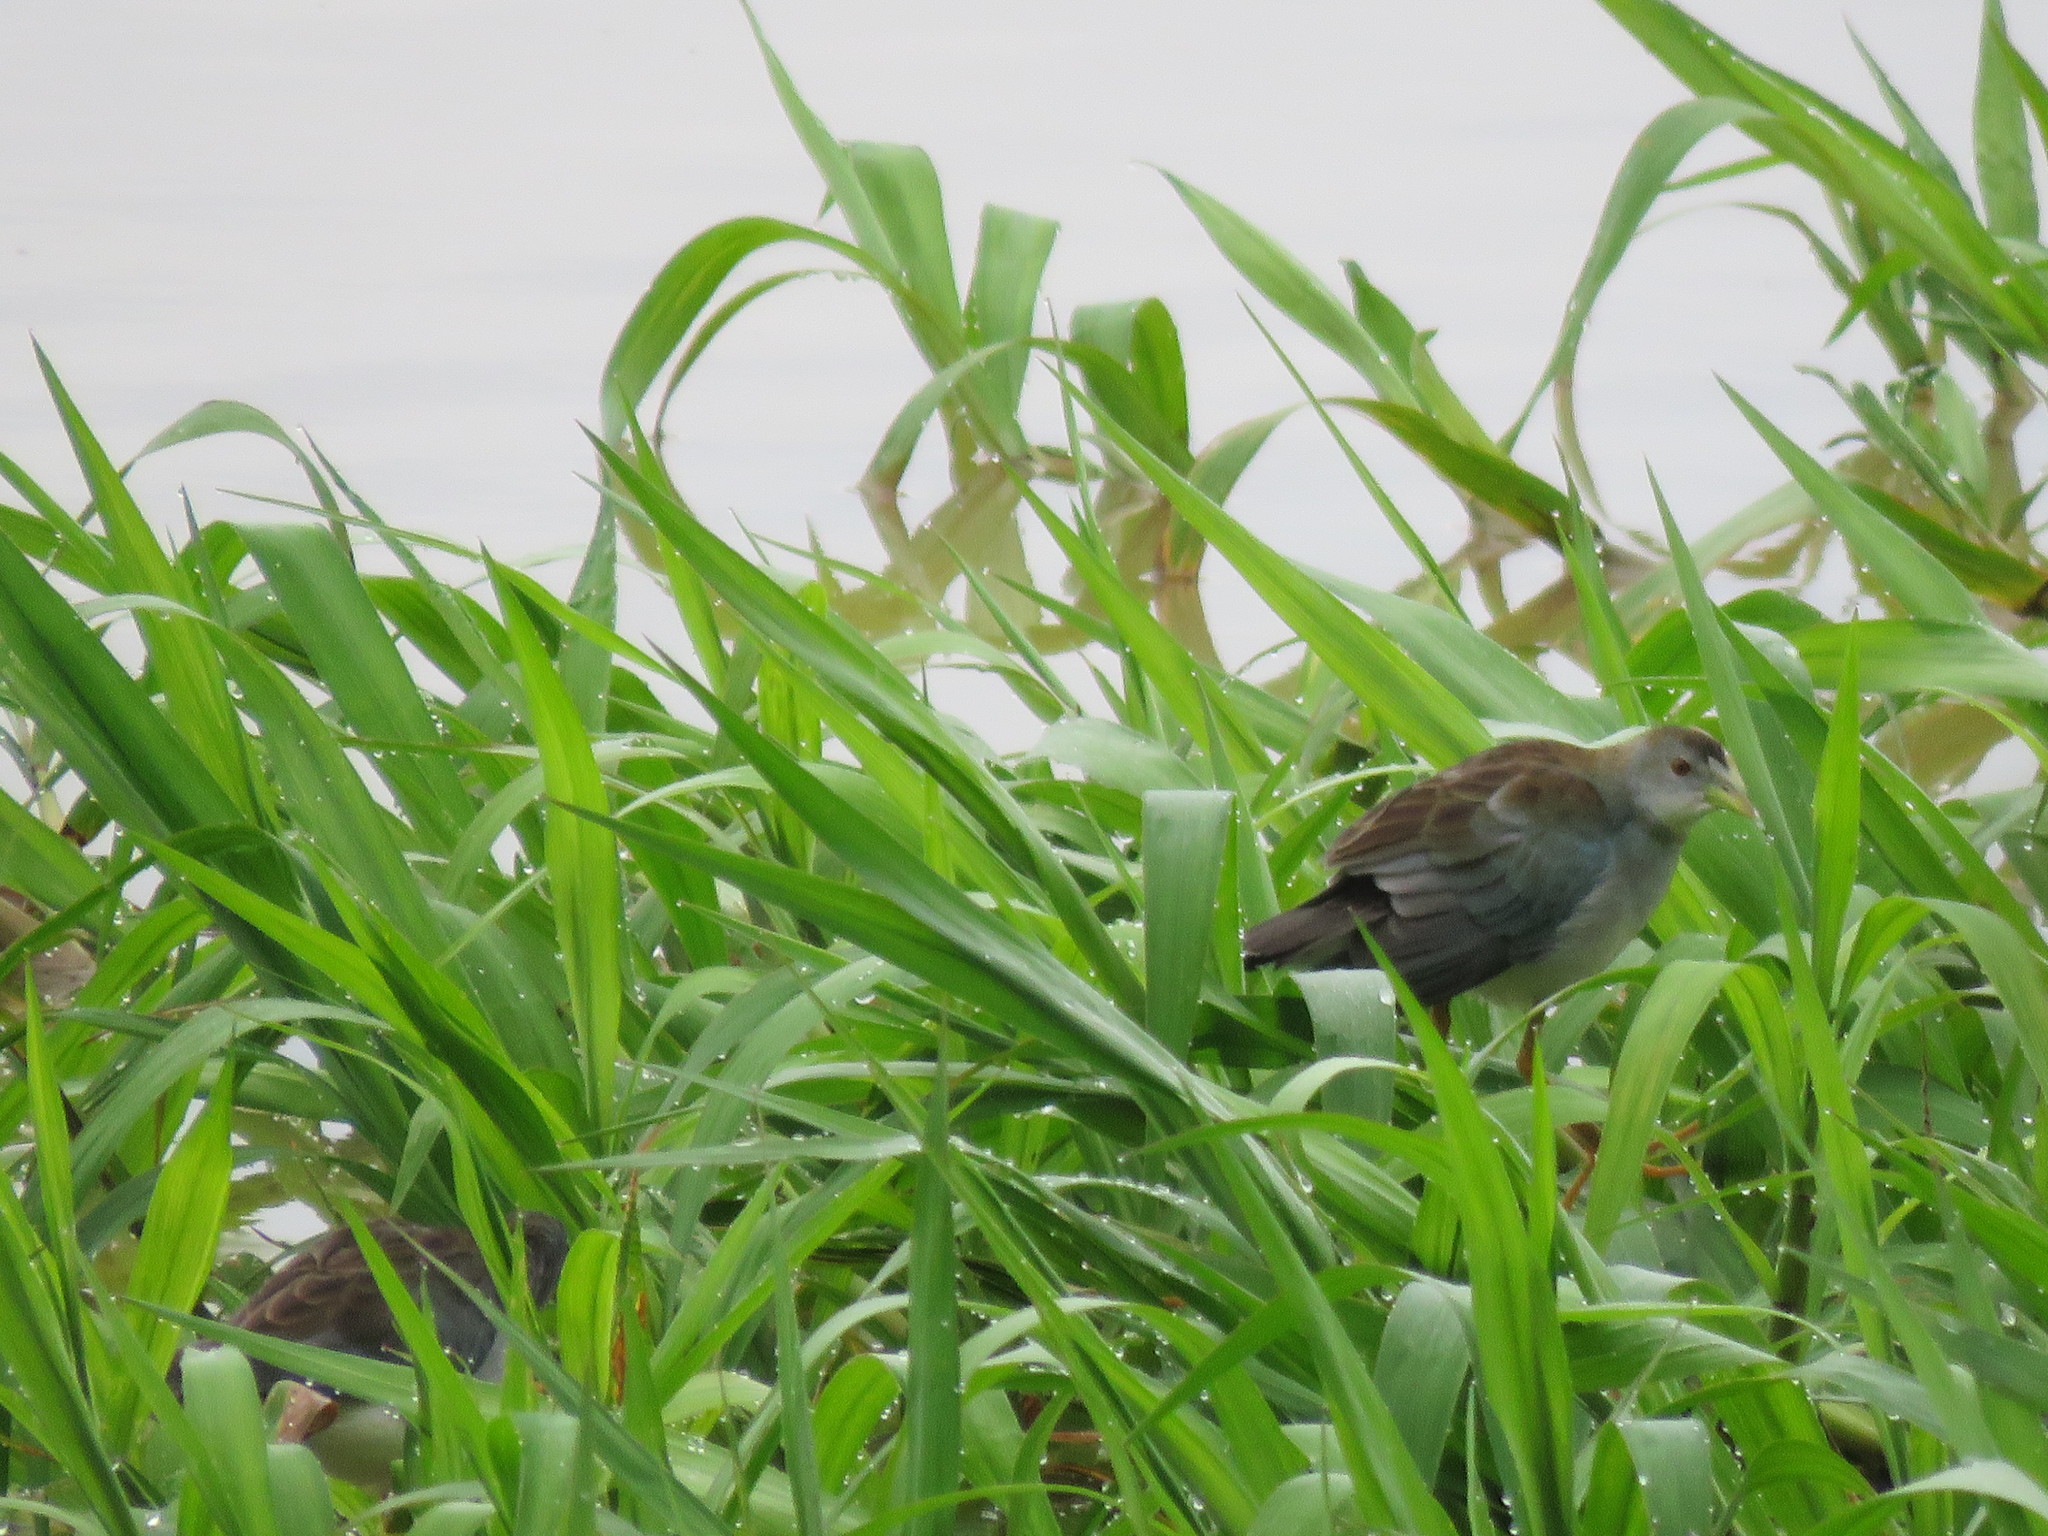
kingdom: Animalia
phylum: Chordata
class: Aves
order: Gruiformes
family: Rallidae
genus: Porphyrio
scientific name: Porphyrio flavirostris
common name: Azure gallinule
